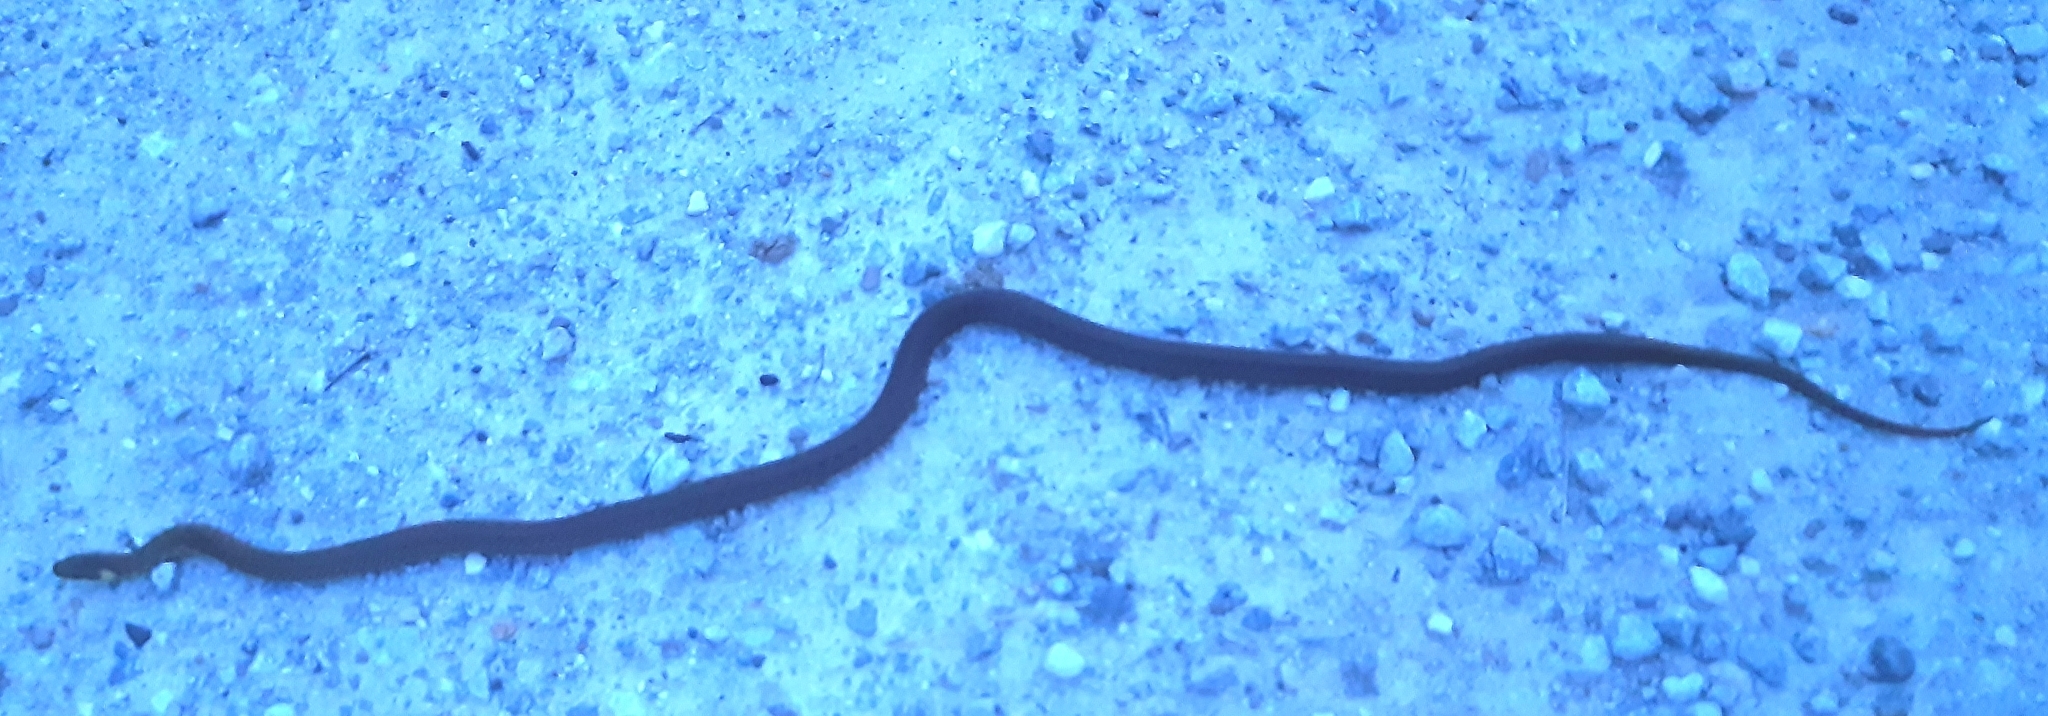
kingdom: Animalia
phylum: Chordata
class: Squamata
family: Colubridae
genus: Zamenis
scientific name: Zamenis longissimus
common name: Aesculapean snake
